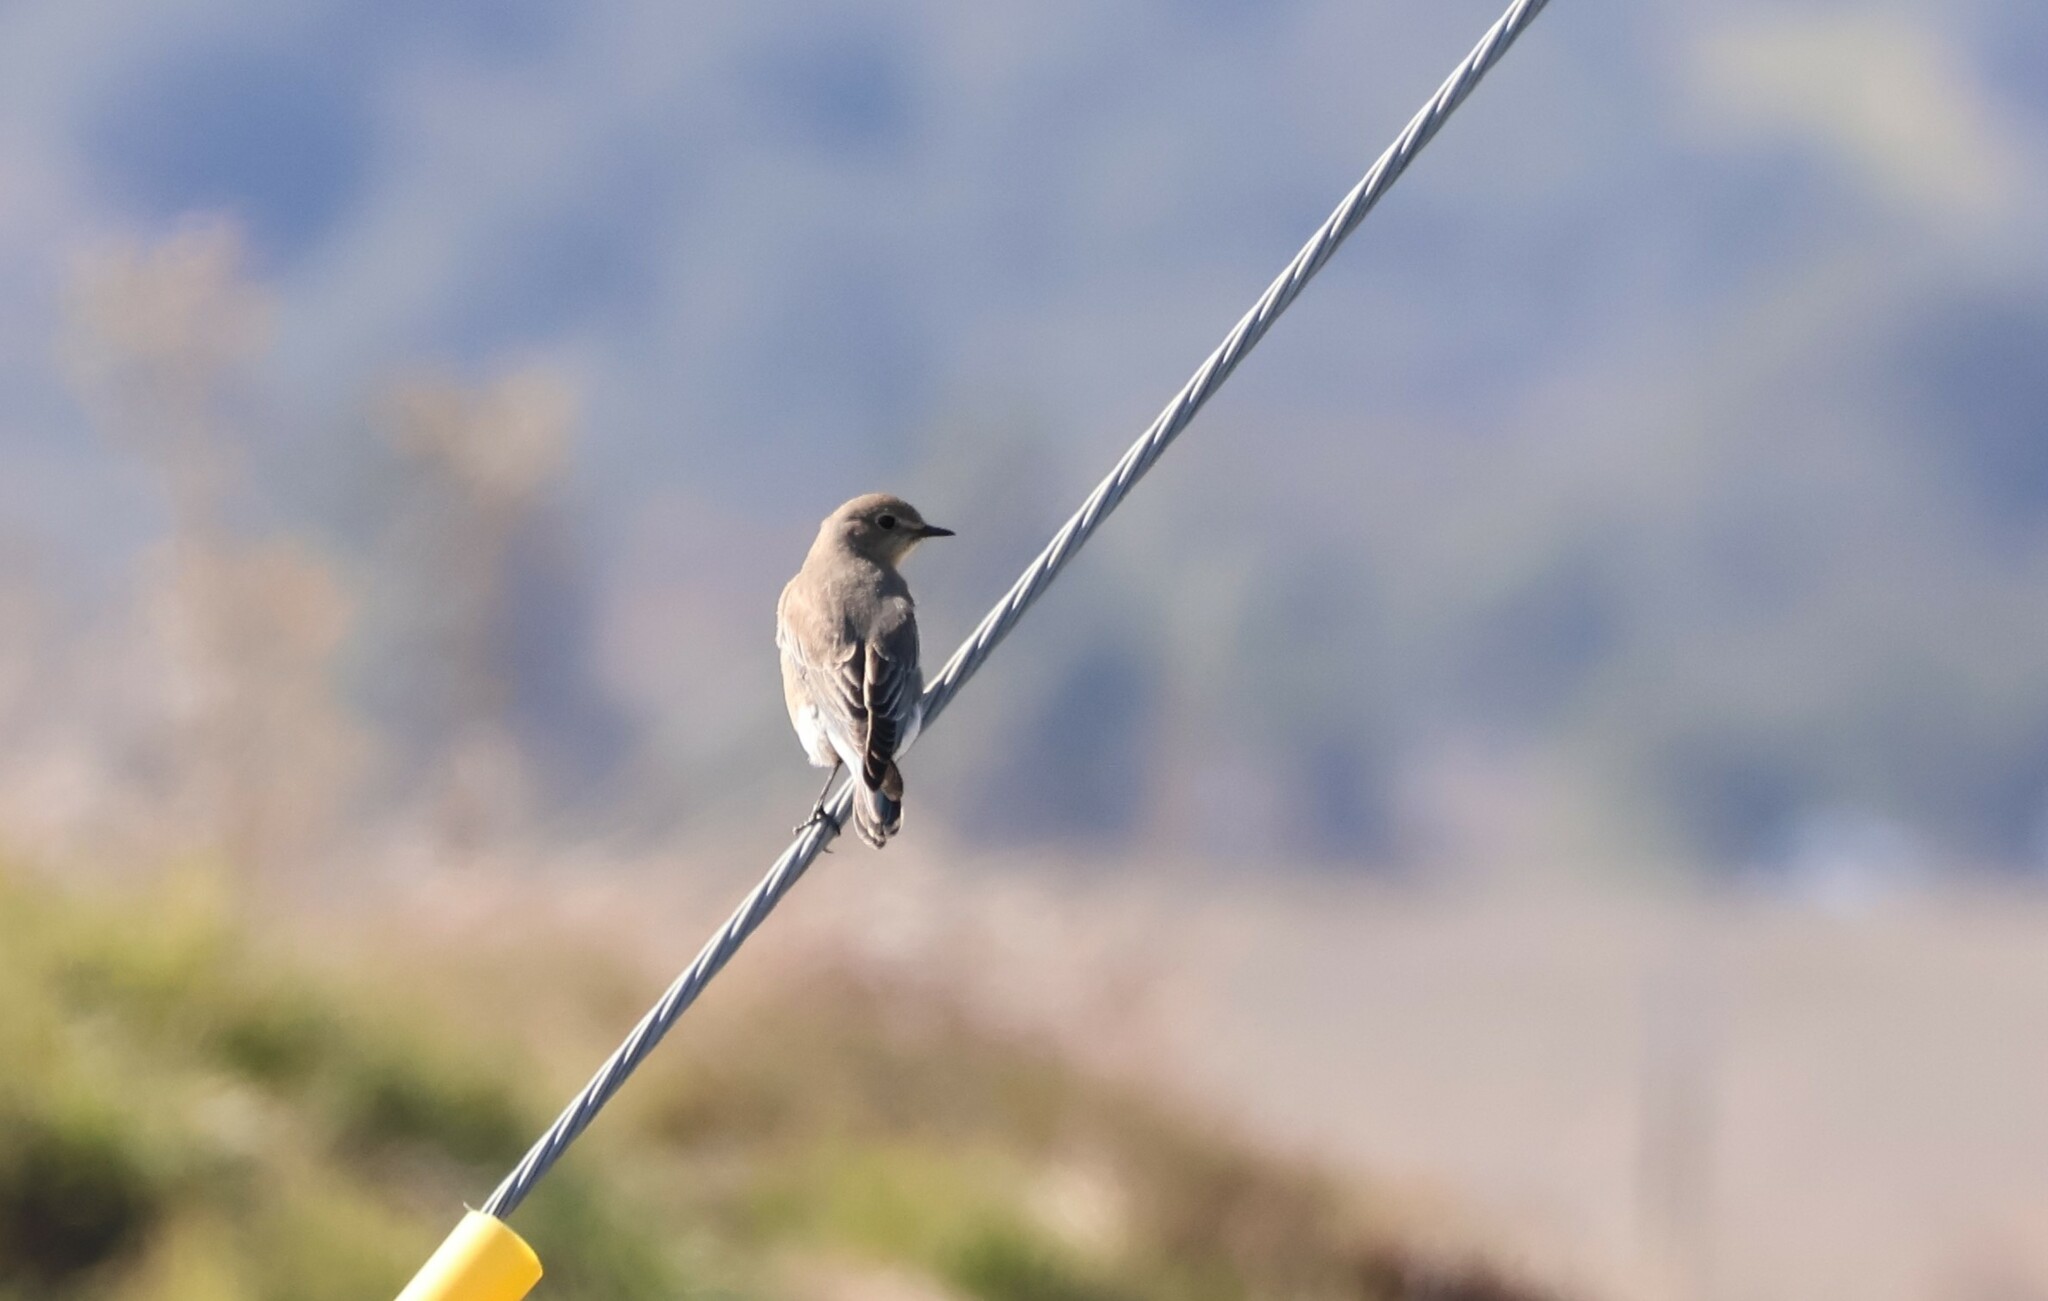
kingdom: Animalia
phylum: Chordata
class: Aves
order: Passeriformes
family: Turdidae
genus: Sialia
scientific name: Sialia currucoides
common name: Mountain bluebird
